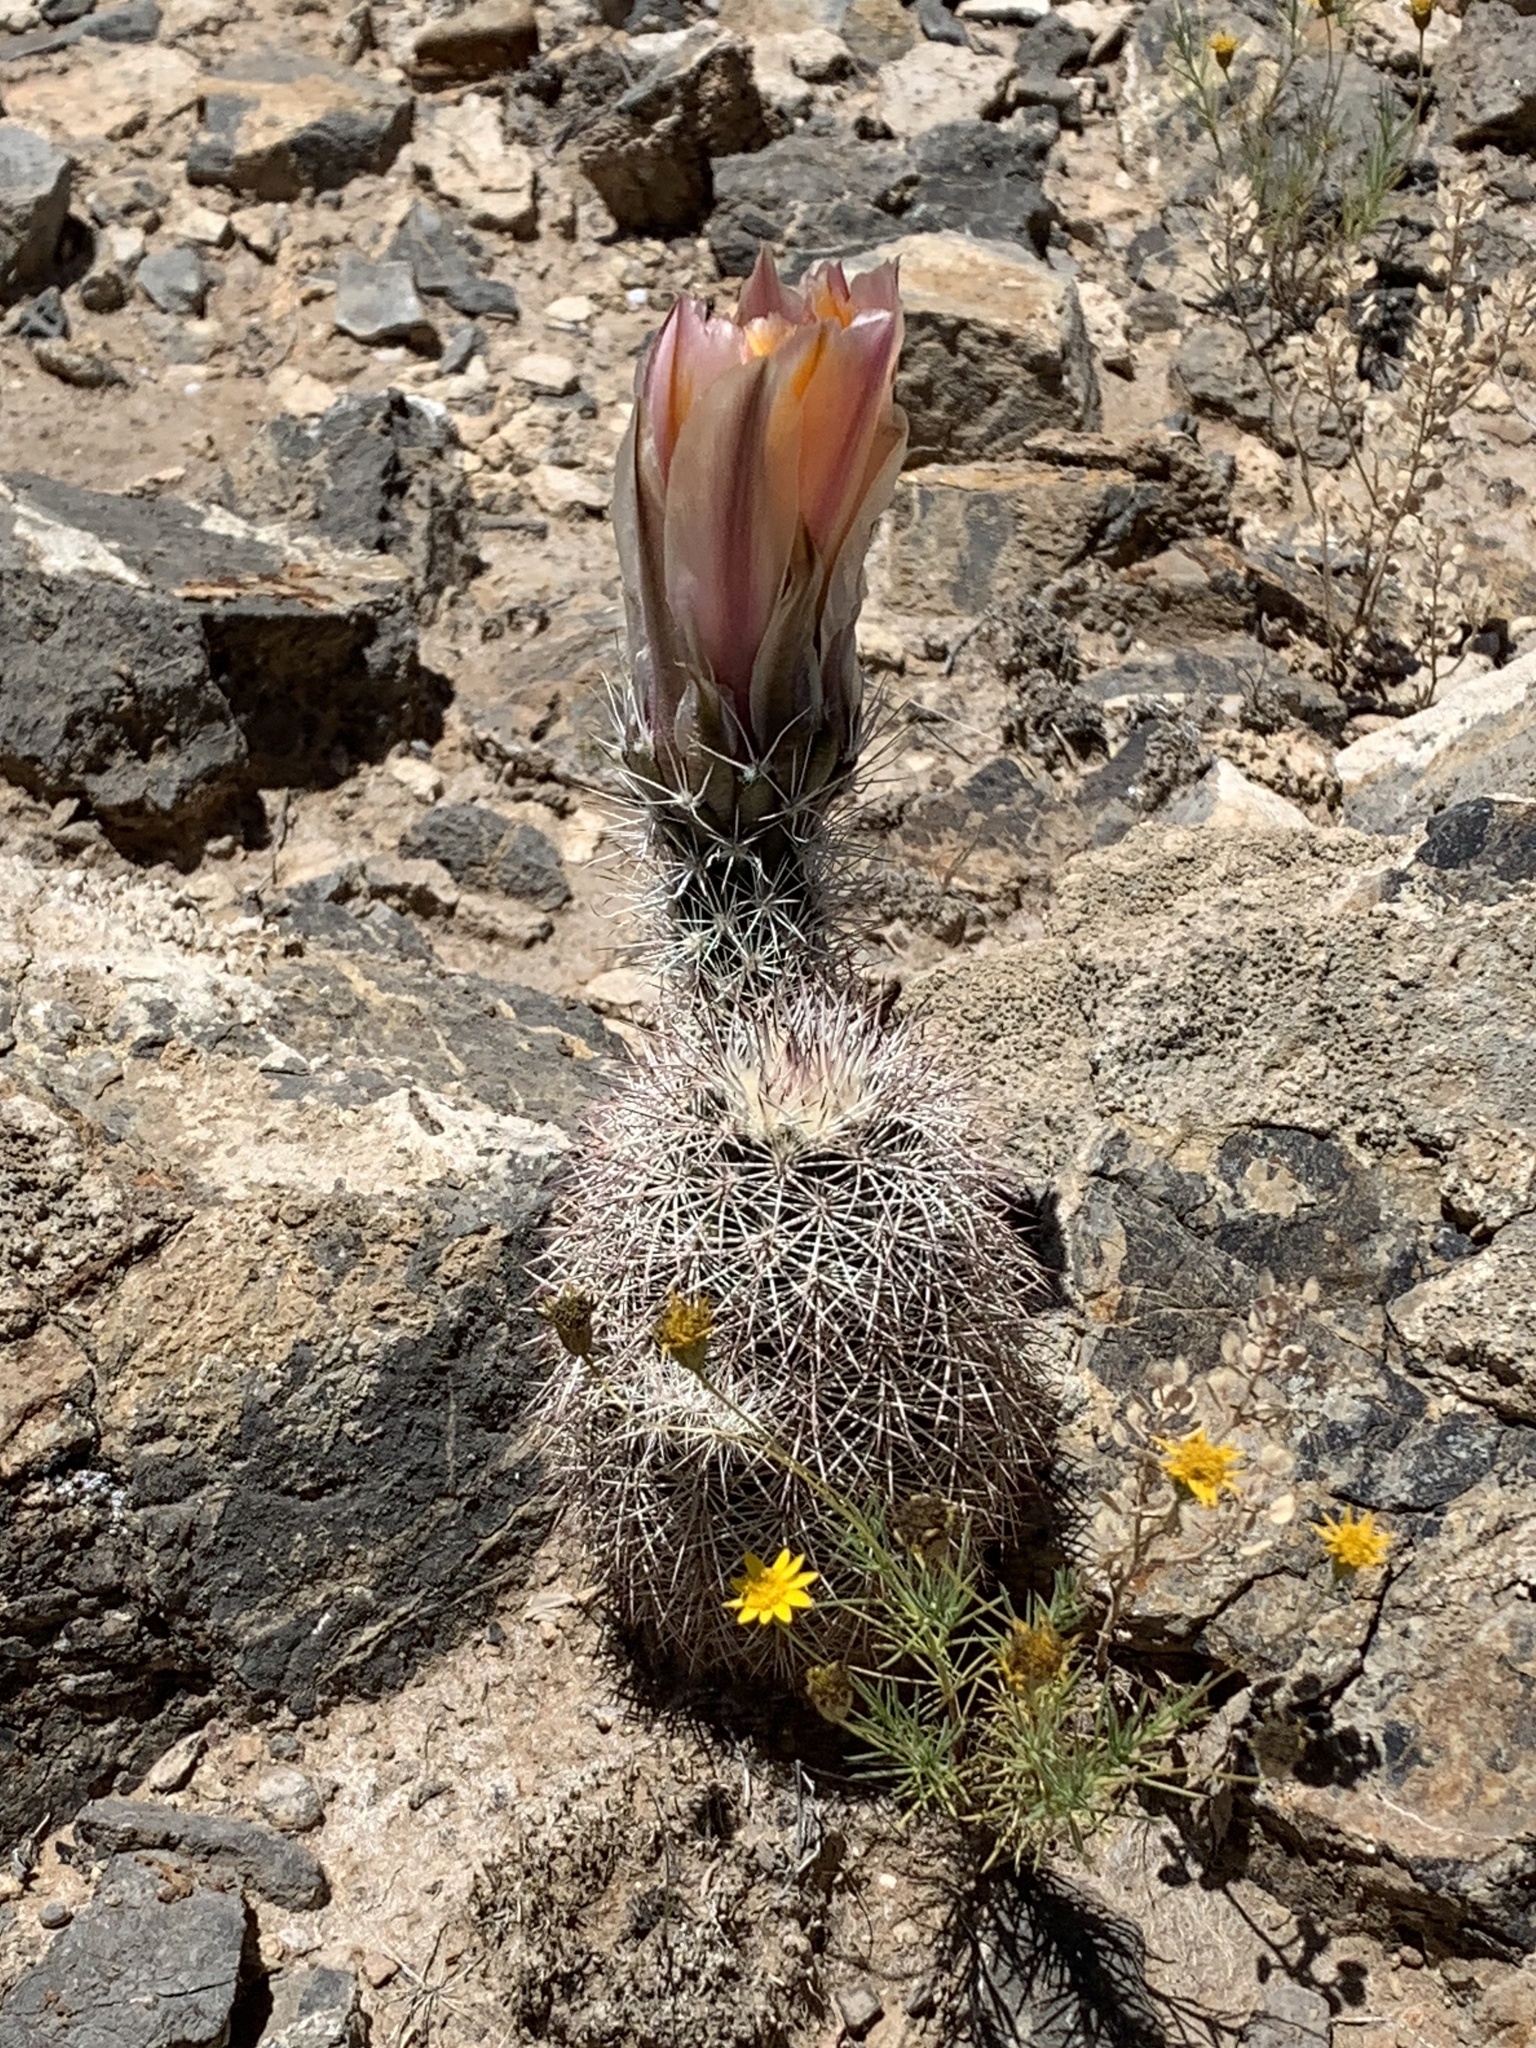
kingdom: Plantae
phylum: Tracheophyta
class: Magnoliopsida
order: Caryophyllales
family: Cactaceae
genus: Echinocereus
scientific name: Echinocereus dasyacanthus
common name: Spiny hedgehog cactus
